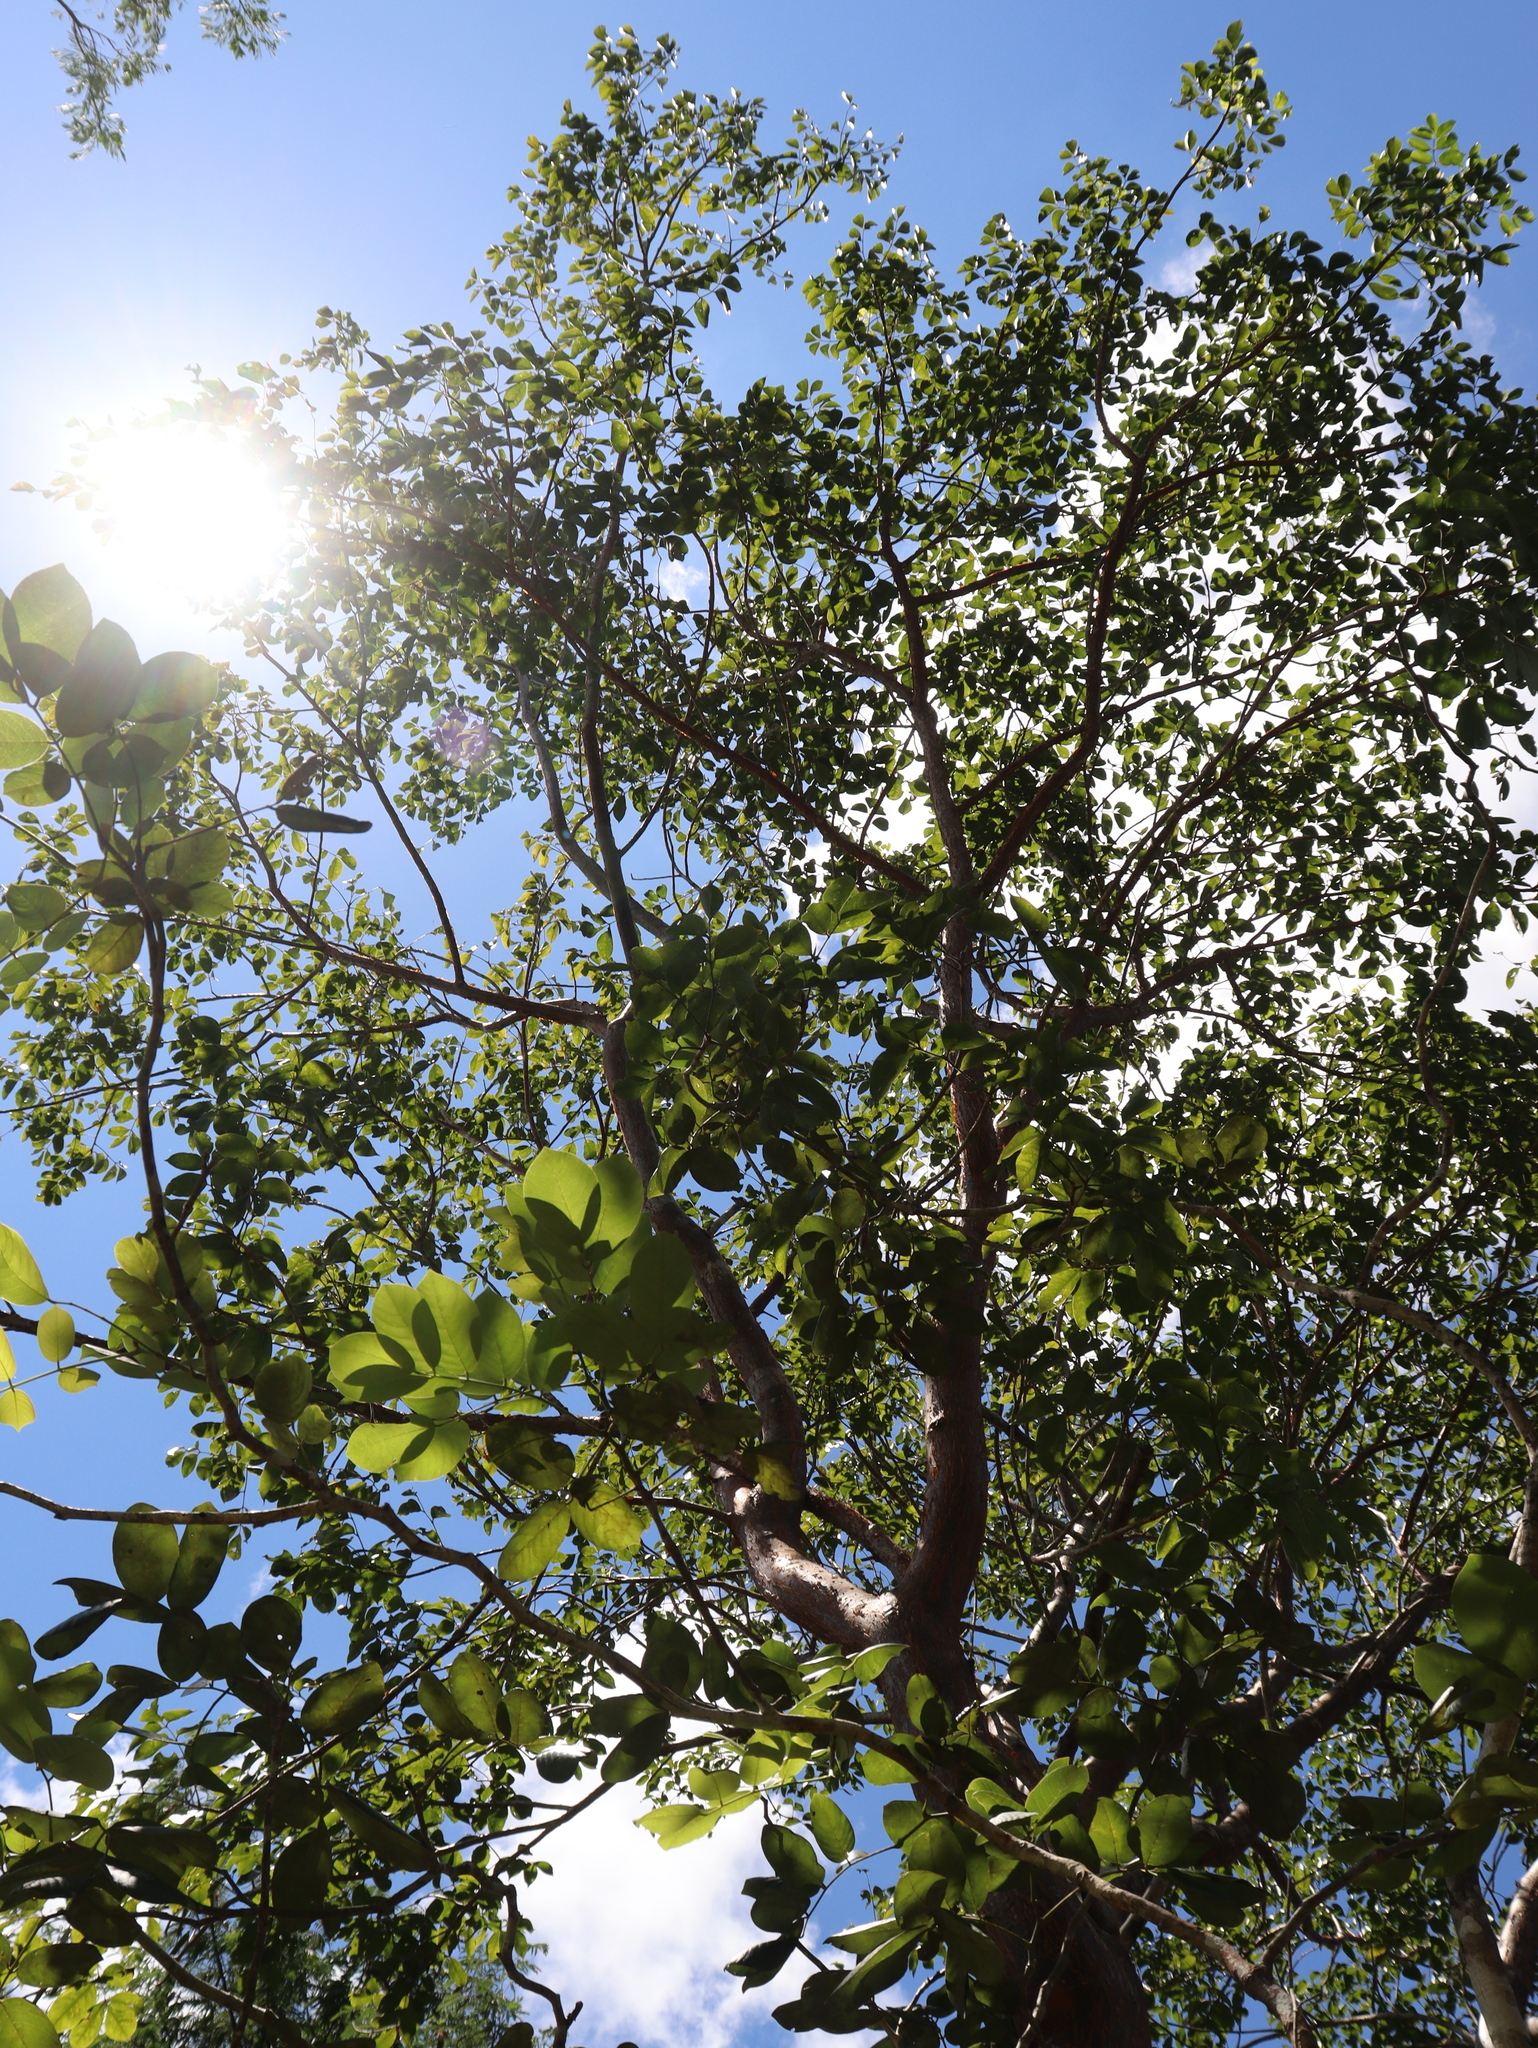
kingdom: Plantae
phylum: Tracheophyta
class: Magnoliopsida
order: Sapindales
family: Burseraceae
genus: Bursera
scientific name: Bursera simaruba
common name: Turpentine tree
